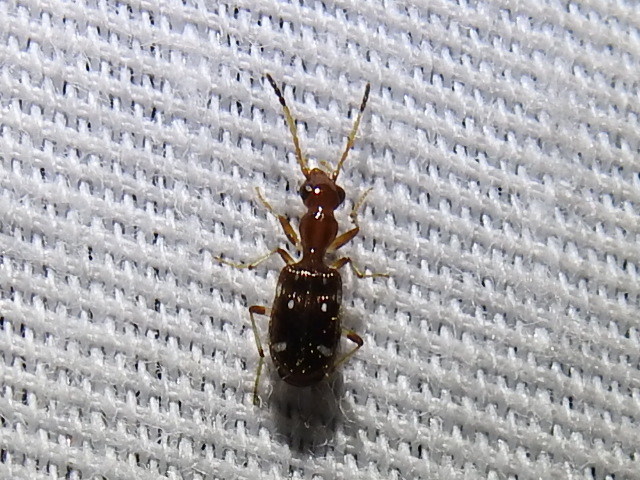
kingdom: Animalia
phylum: Arthropoda
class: Insecta
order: Coleoptera
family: Carabidae
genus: Ega
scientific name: Ega sallei
